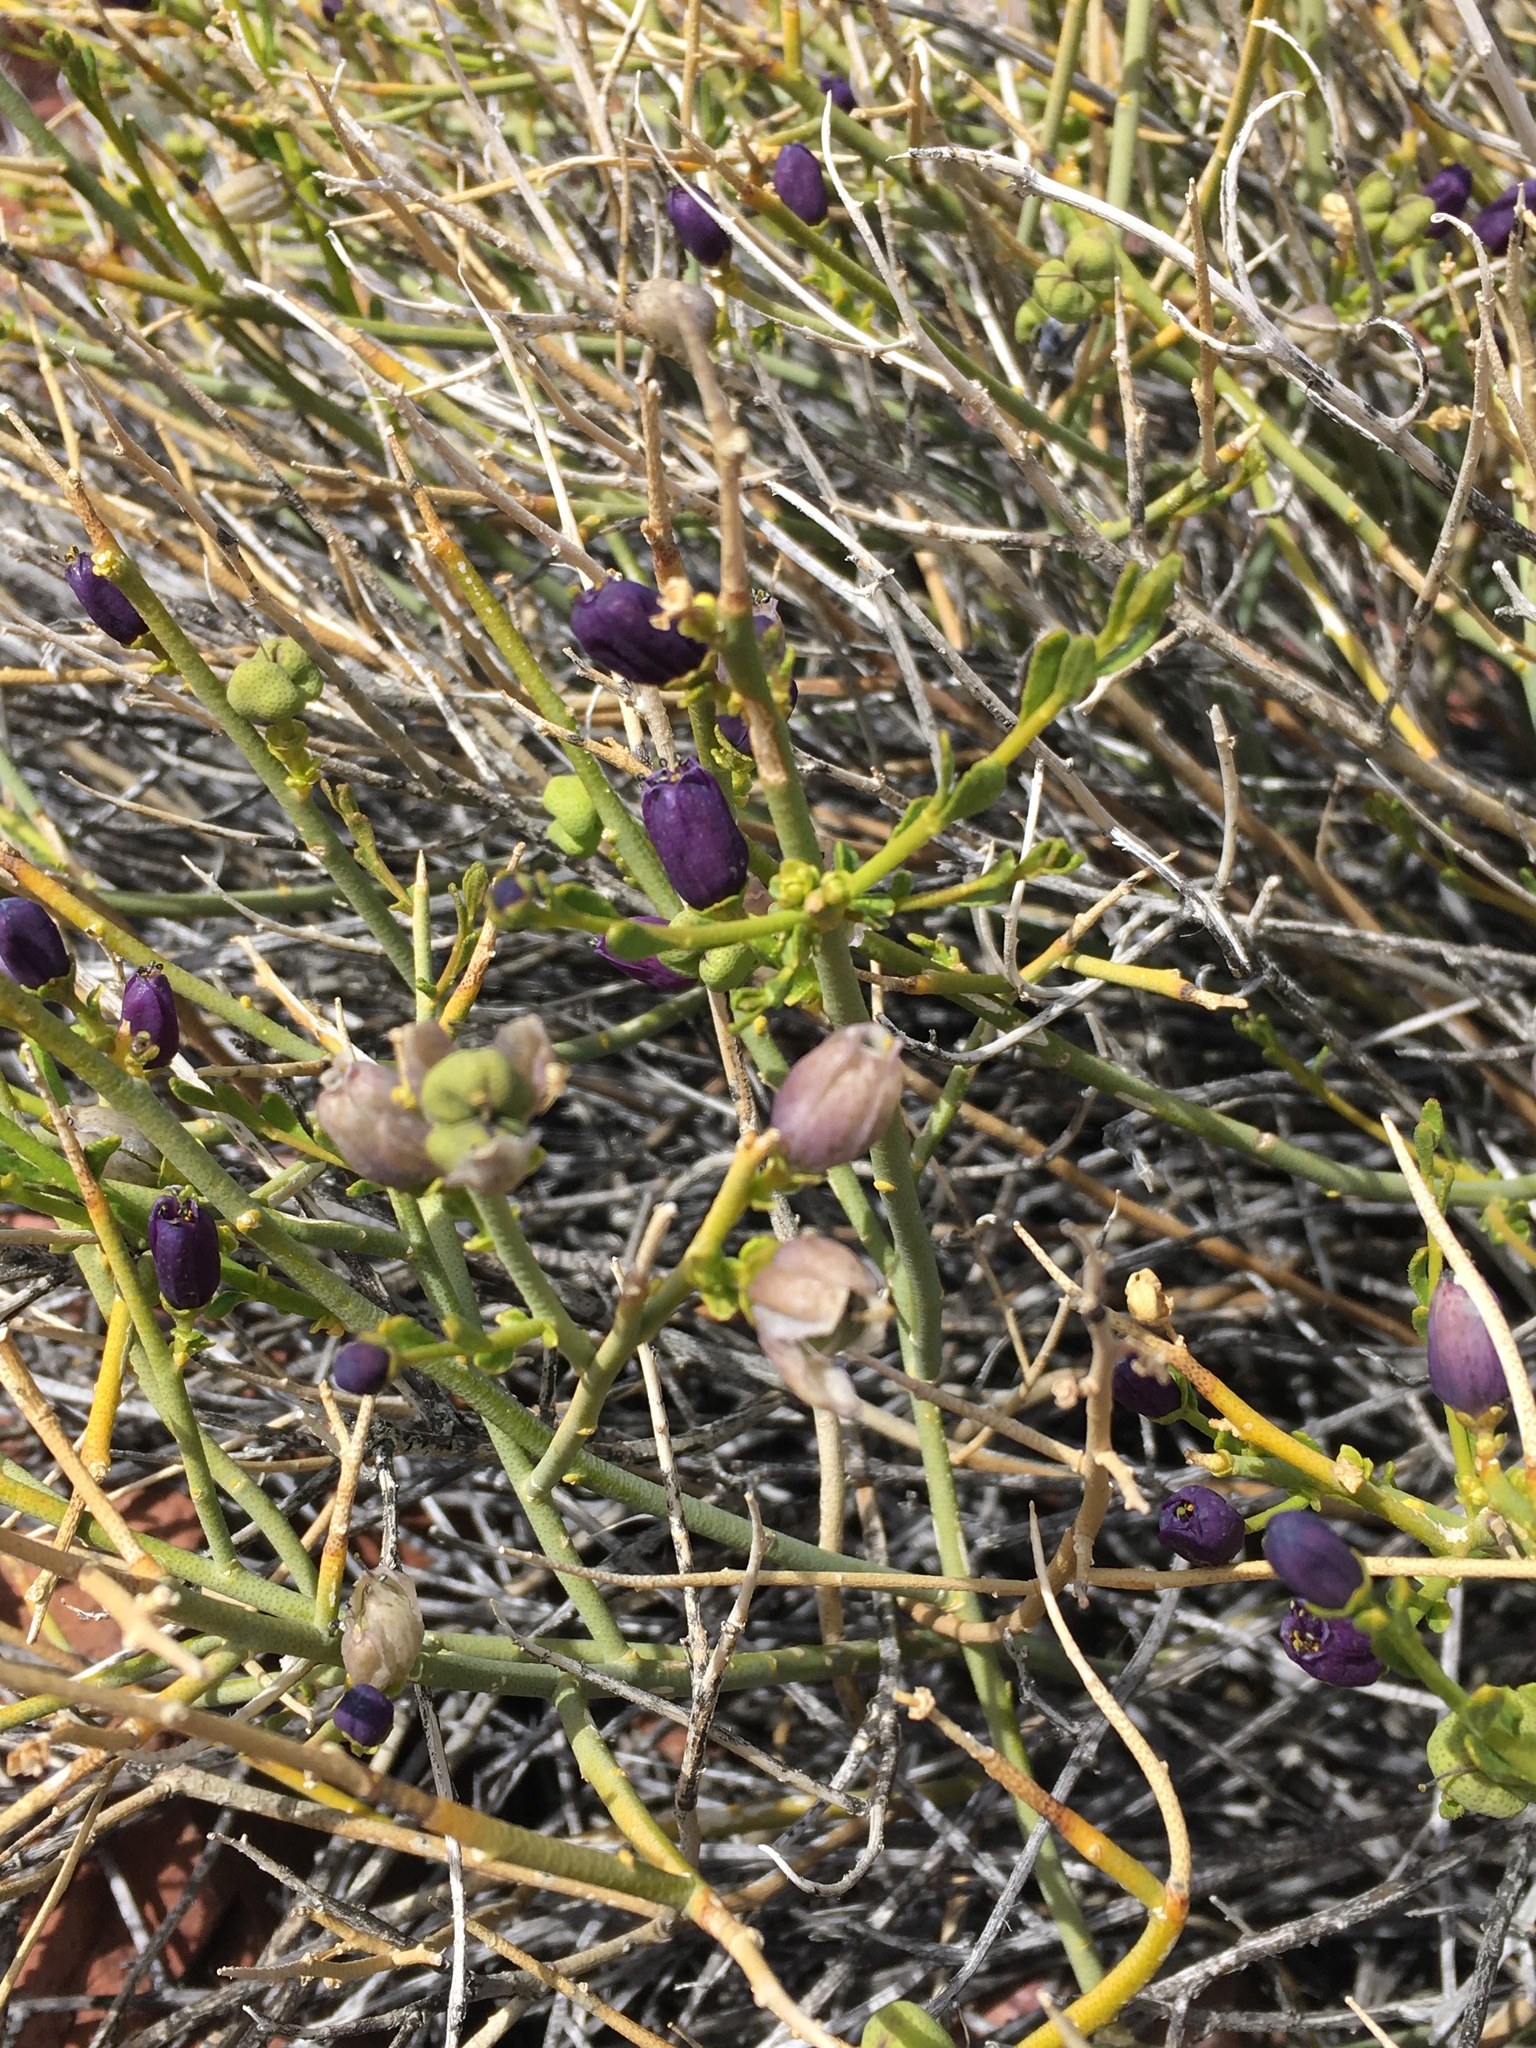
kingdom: Plantae
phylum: Tracheophyta
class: Magnoliopsida
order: Sapindales
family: Rutaceae
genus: Thamnosma
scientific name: Thamnosma montana
